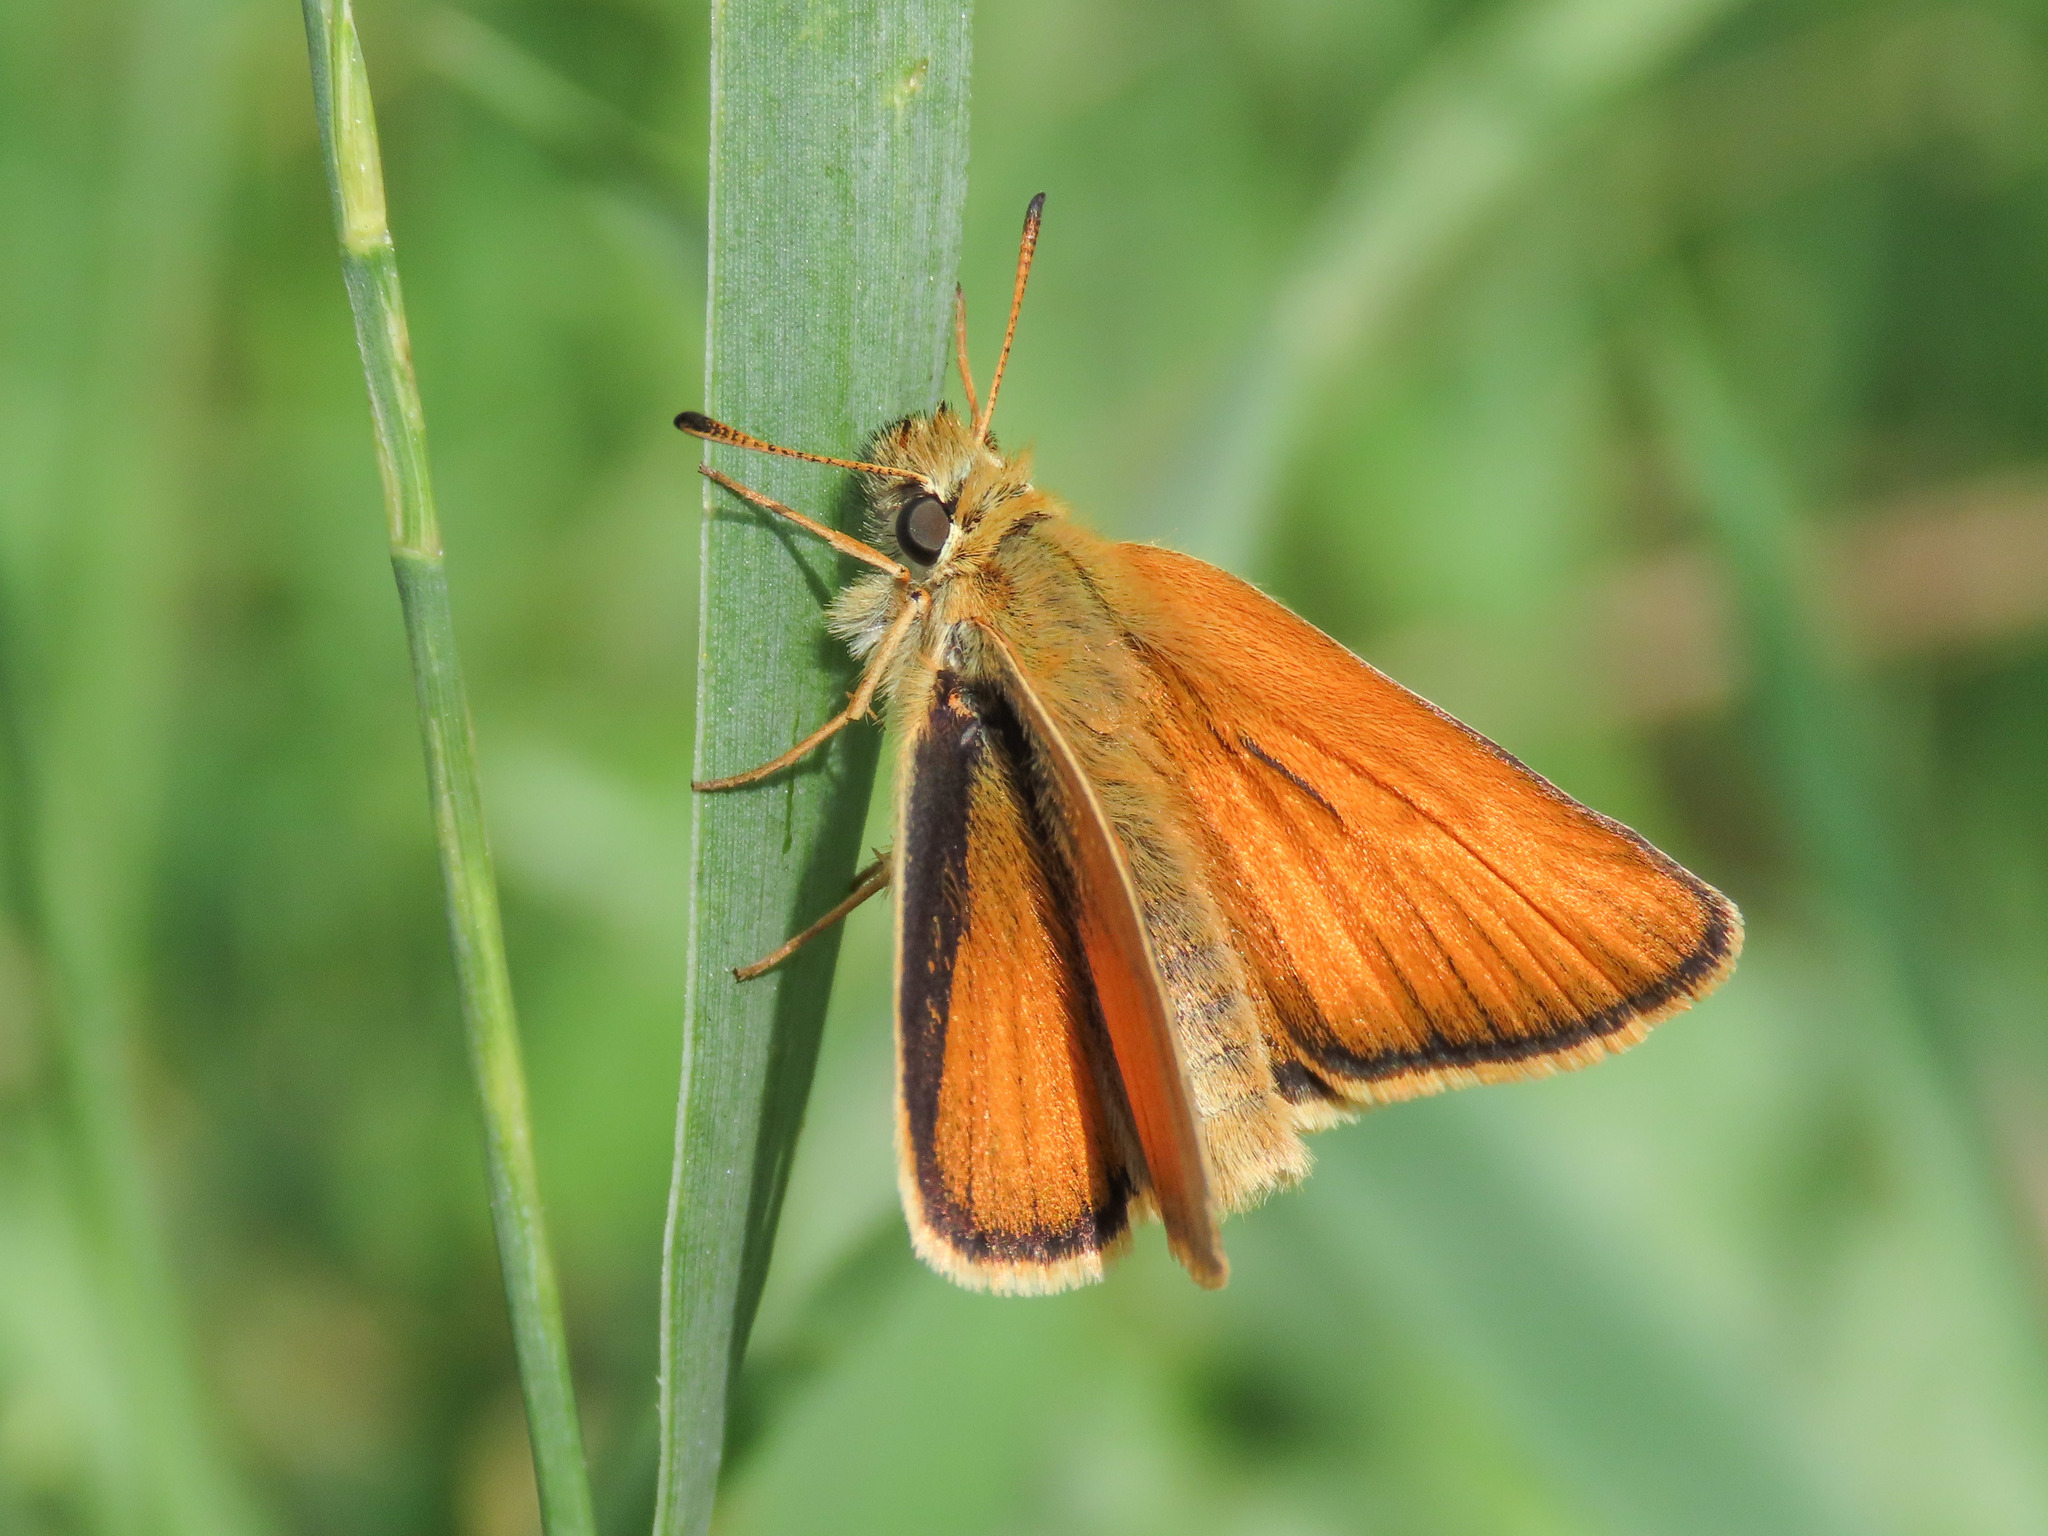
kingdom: Animalia
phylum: Arthropoda
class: Insecta
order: Lepidoptera
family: Hesperiidae
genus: Thymelicus
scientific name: Thymelicus lineola
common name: Essex skipper
